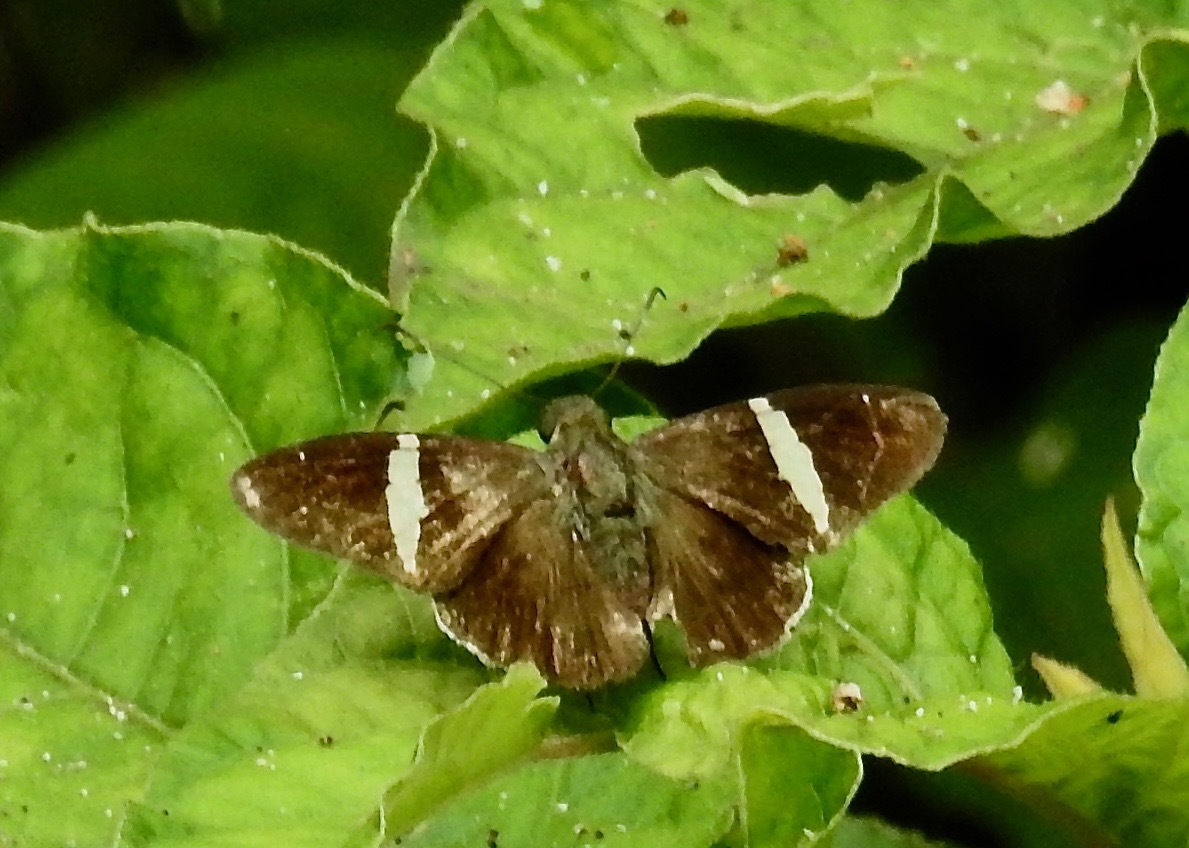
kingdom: Animalia
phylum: Arthropoda
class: Insecta
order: Lepidoptera
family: Hesperiidae
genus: Autochton
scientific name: Autochton zarex
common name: Sharp banded-skipper
